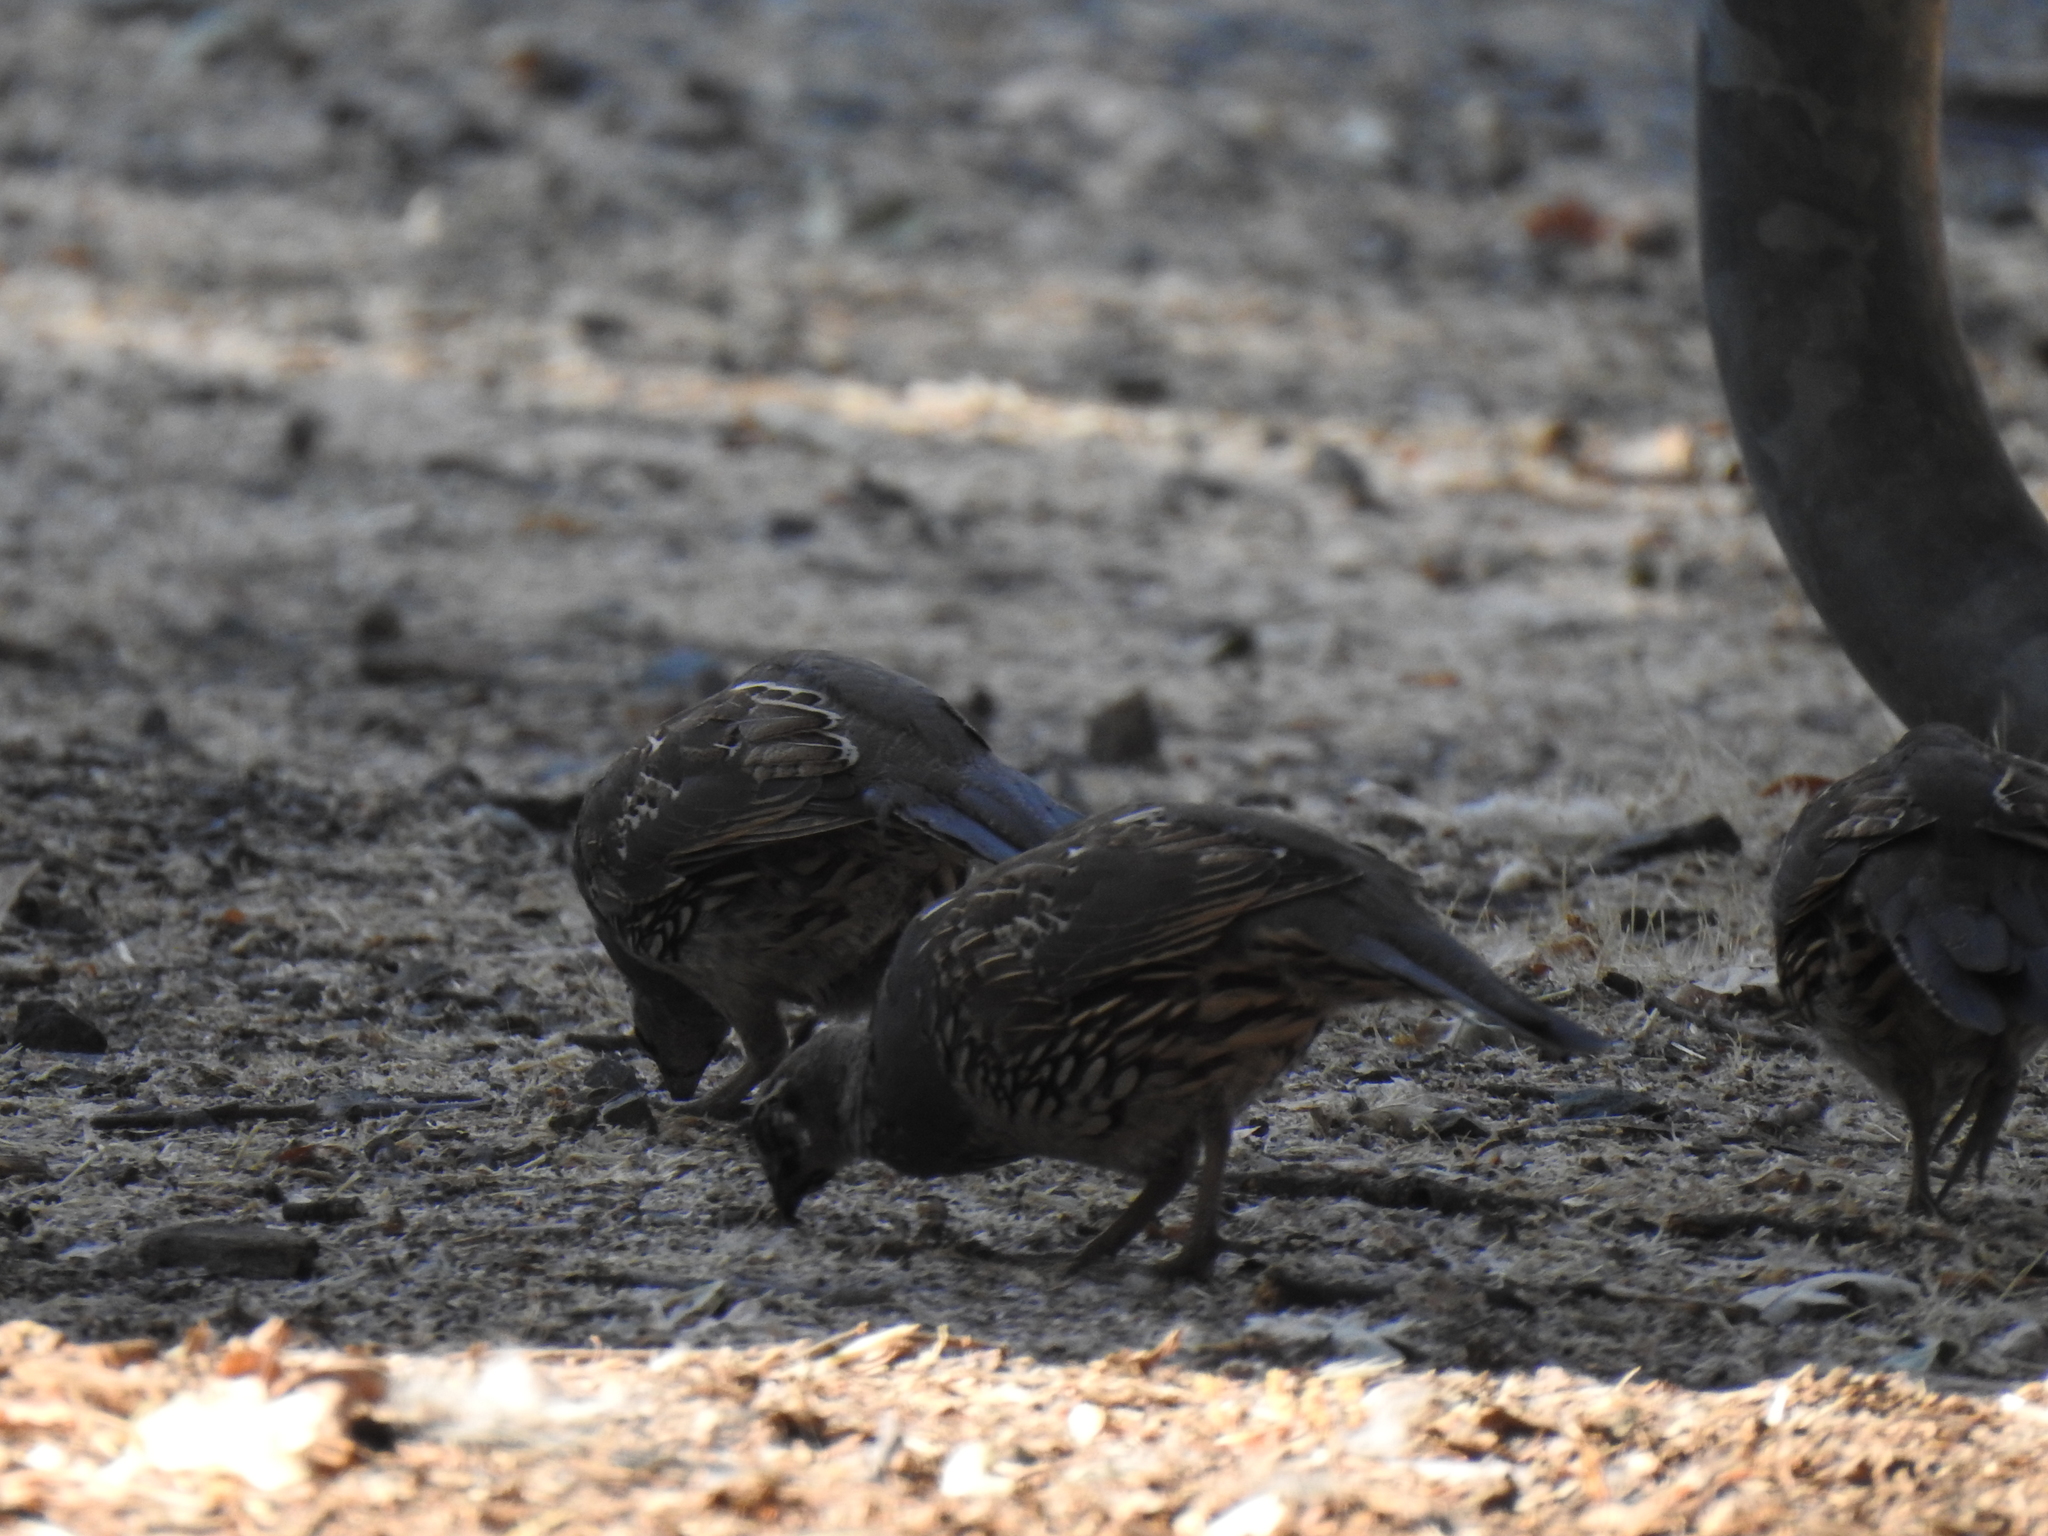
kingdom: Animalia
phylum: Chordata
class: Aves
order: Galliformes
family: Odontophoridae
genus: Callipepla
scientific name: Callipepla californica
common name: California quail
